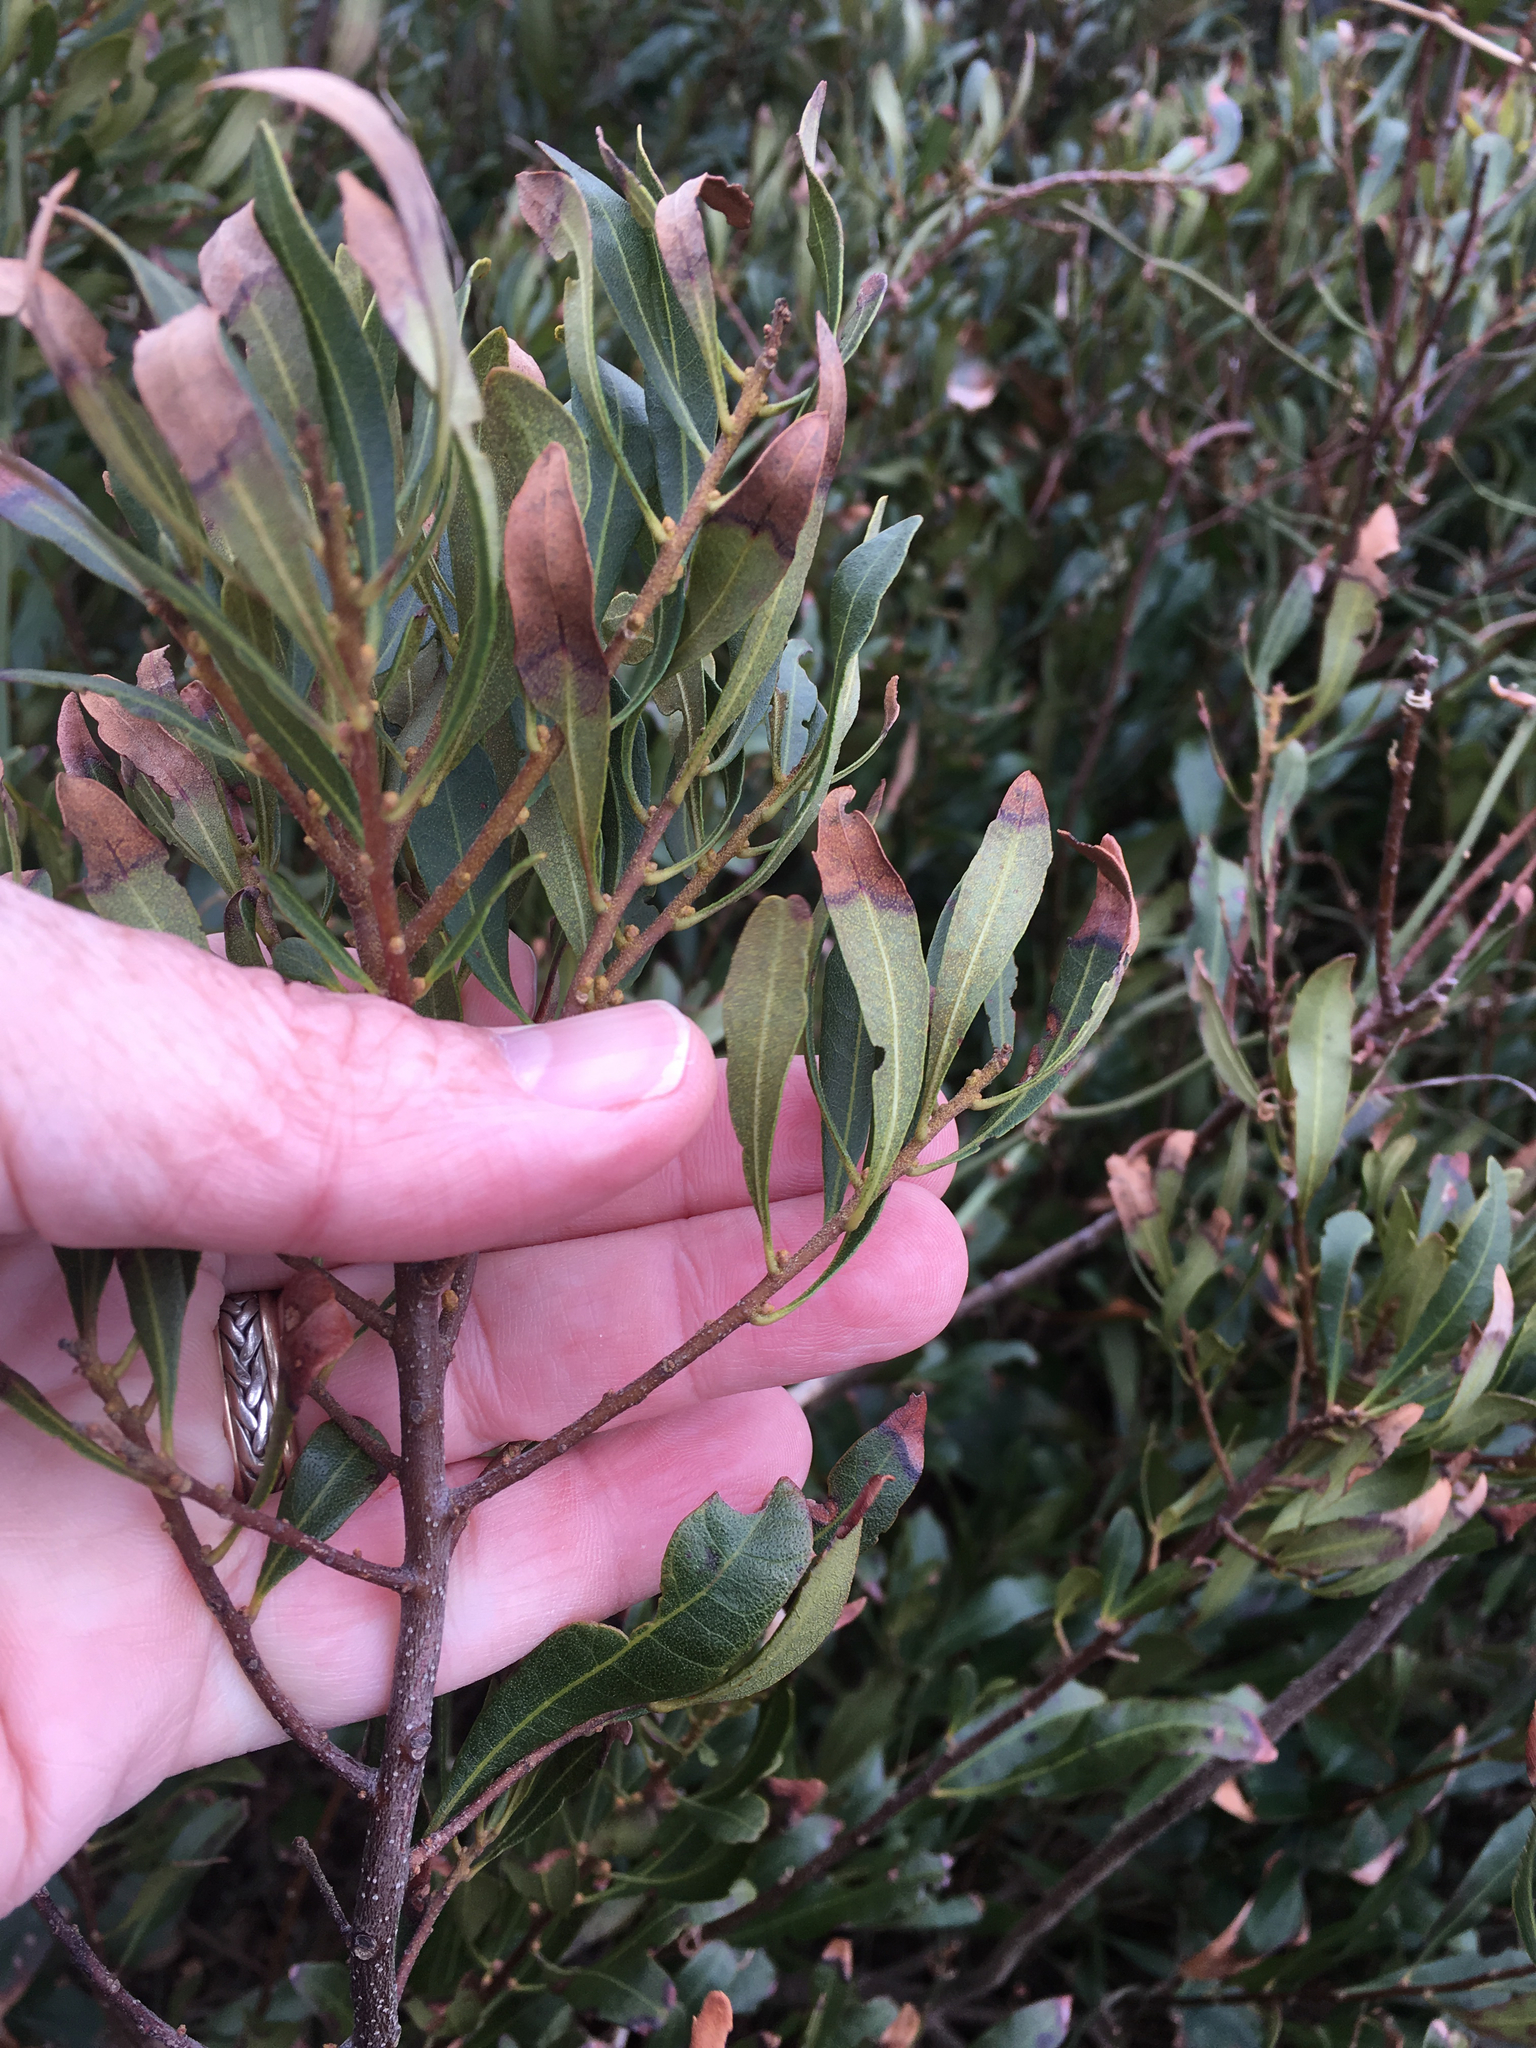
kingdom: Plantae
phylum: Tracheophyta
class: Magnoliopsida
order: Fagales
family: Myricaceae
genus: Morella
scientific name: Morella cerifera
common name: Wax myrtle
